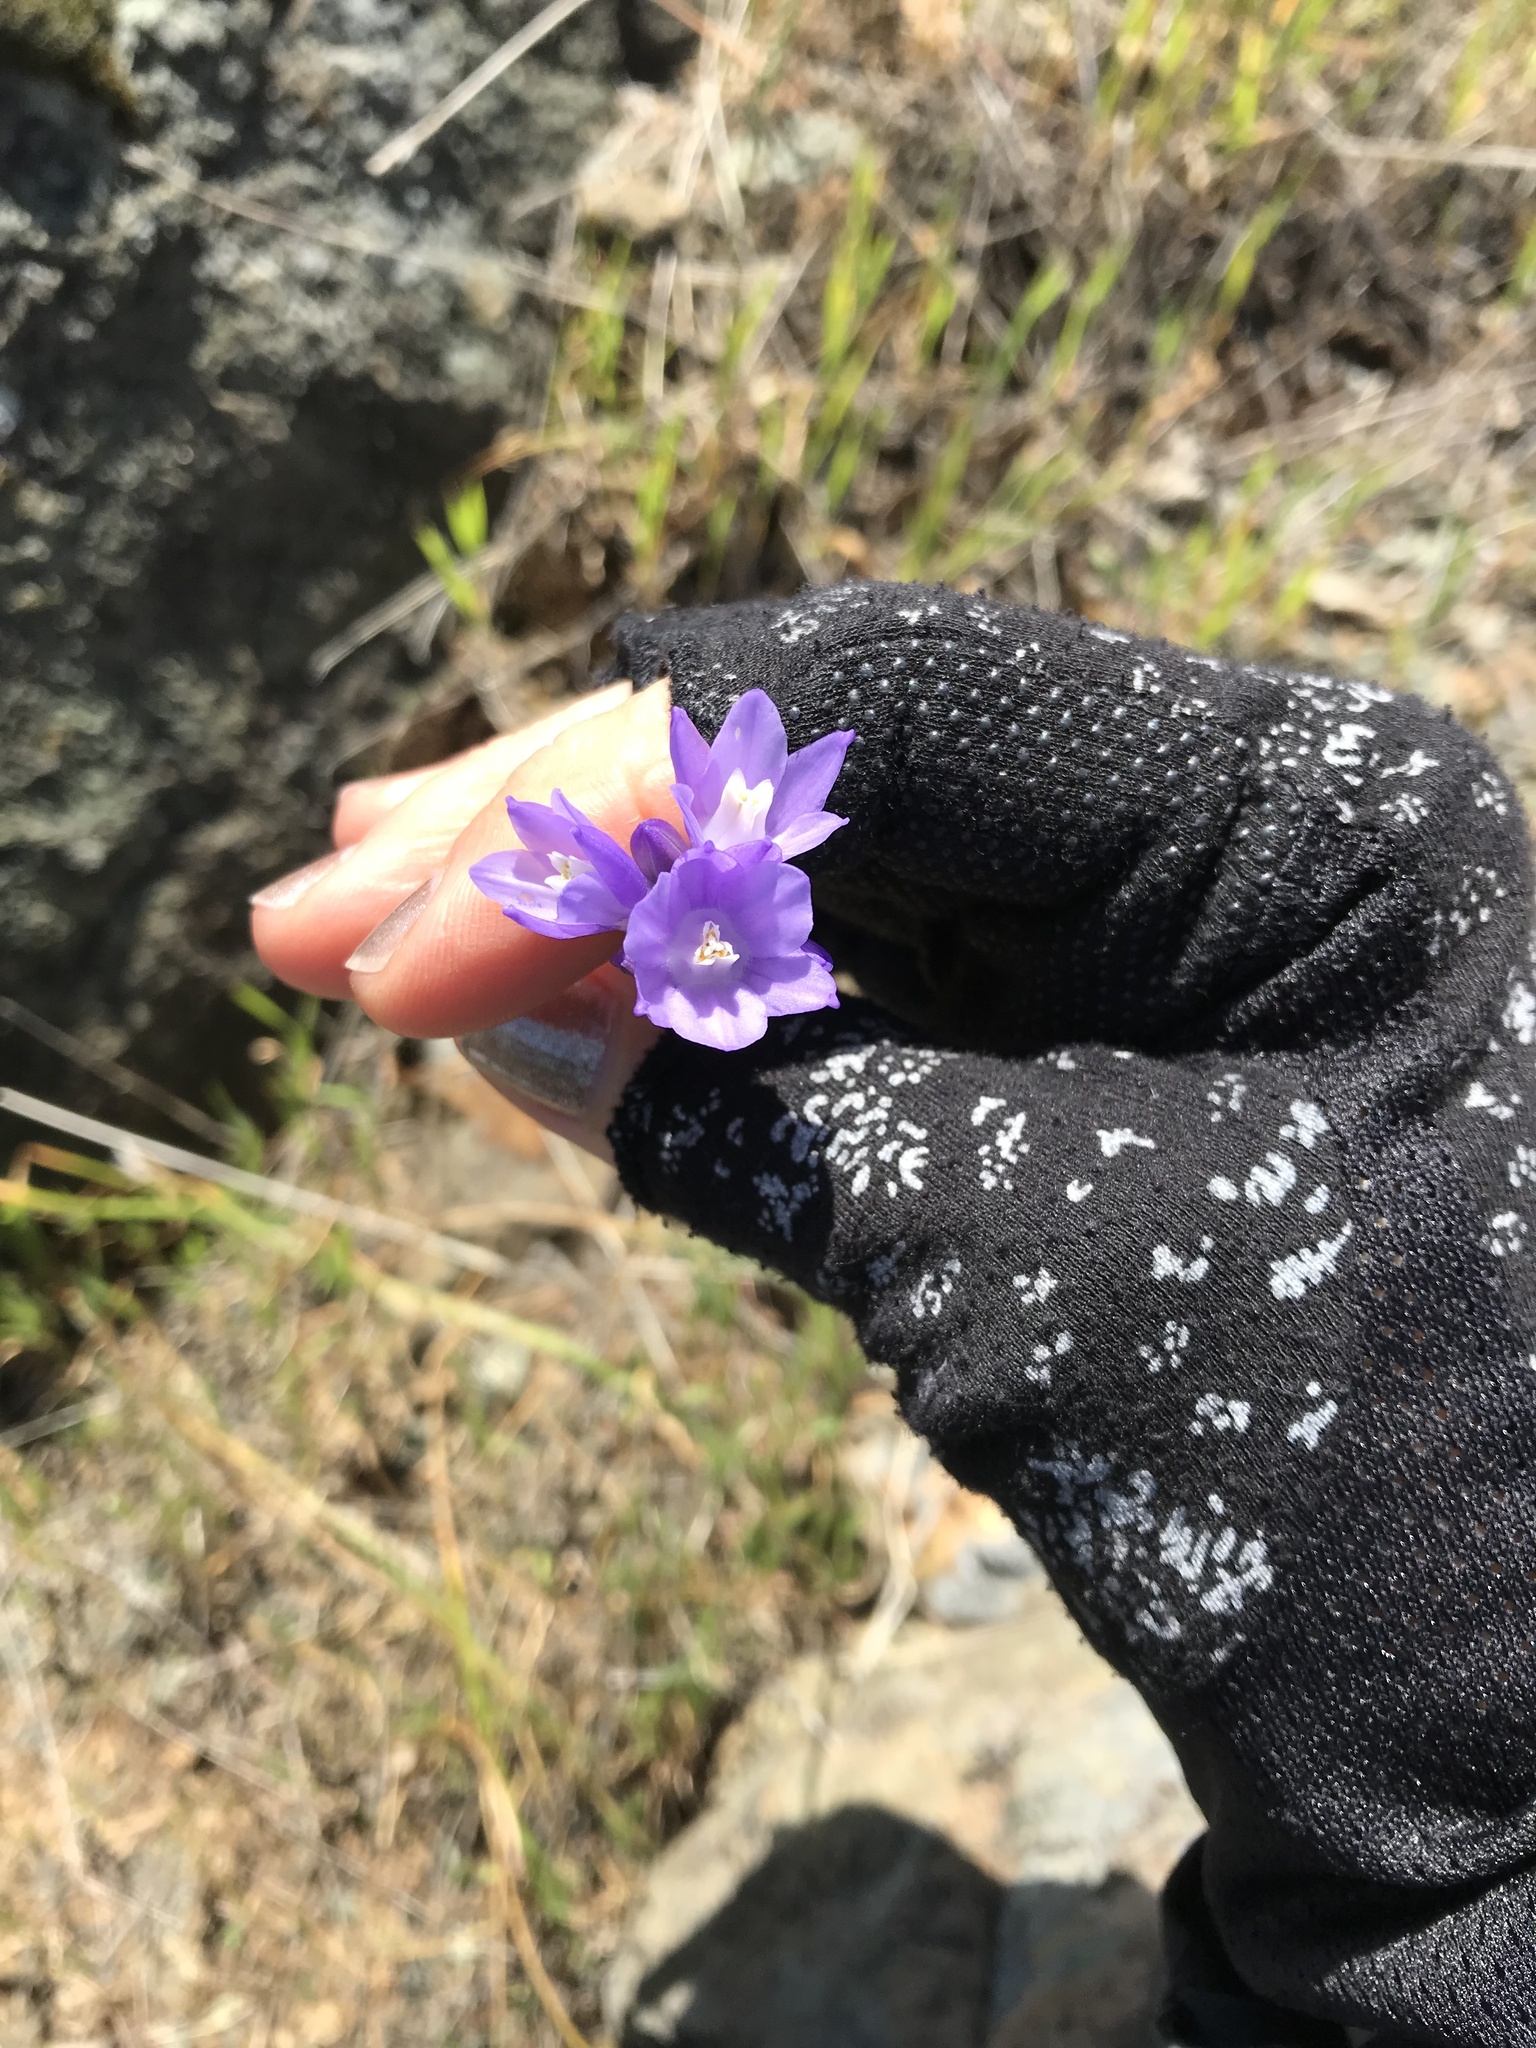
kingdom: Plantae
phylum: Tracheophyta
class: Liliopsida
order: Asparagales
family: Asparagaceae
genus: Dipterostemon
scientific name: Dipterostemon capitatus
